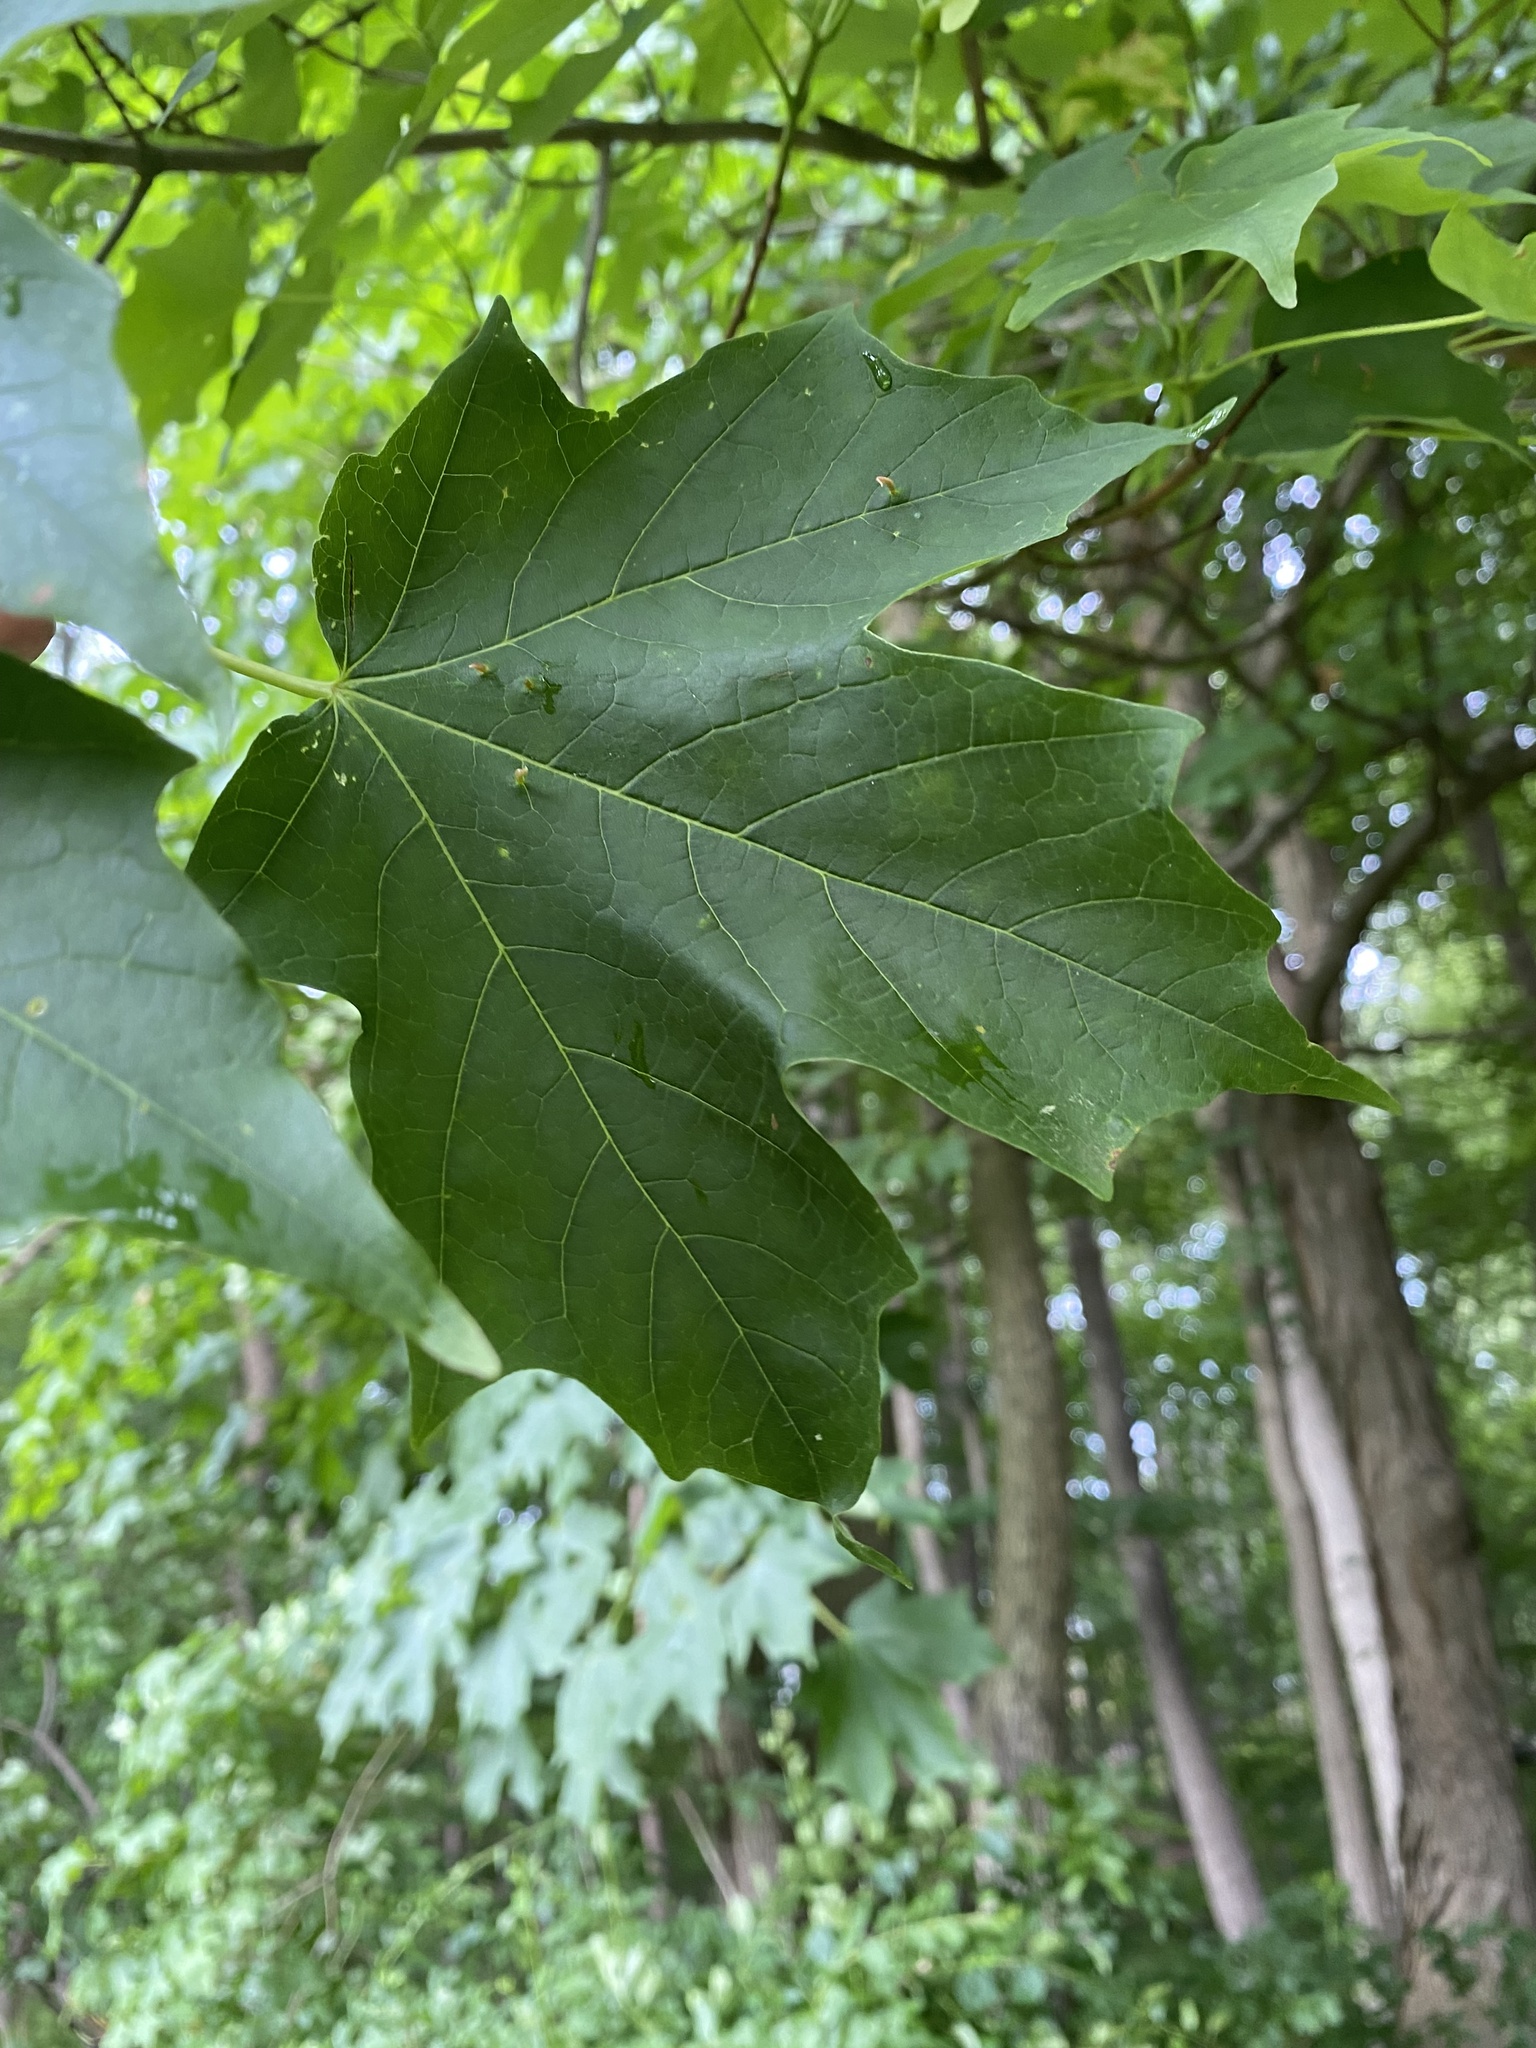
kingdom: Plantae
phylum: Tracheophyta
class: Magnoliopsida
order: Sapindales
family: Sapindaceae
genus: Acer
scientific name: Acer saccharum
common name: Sugar maple
